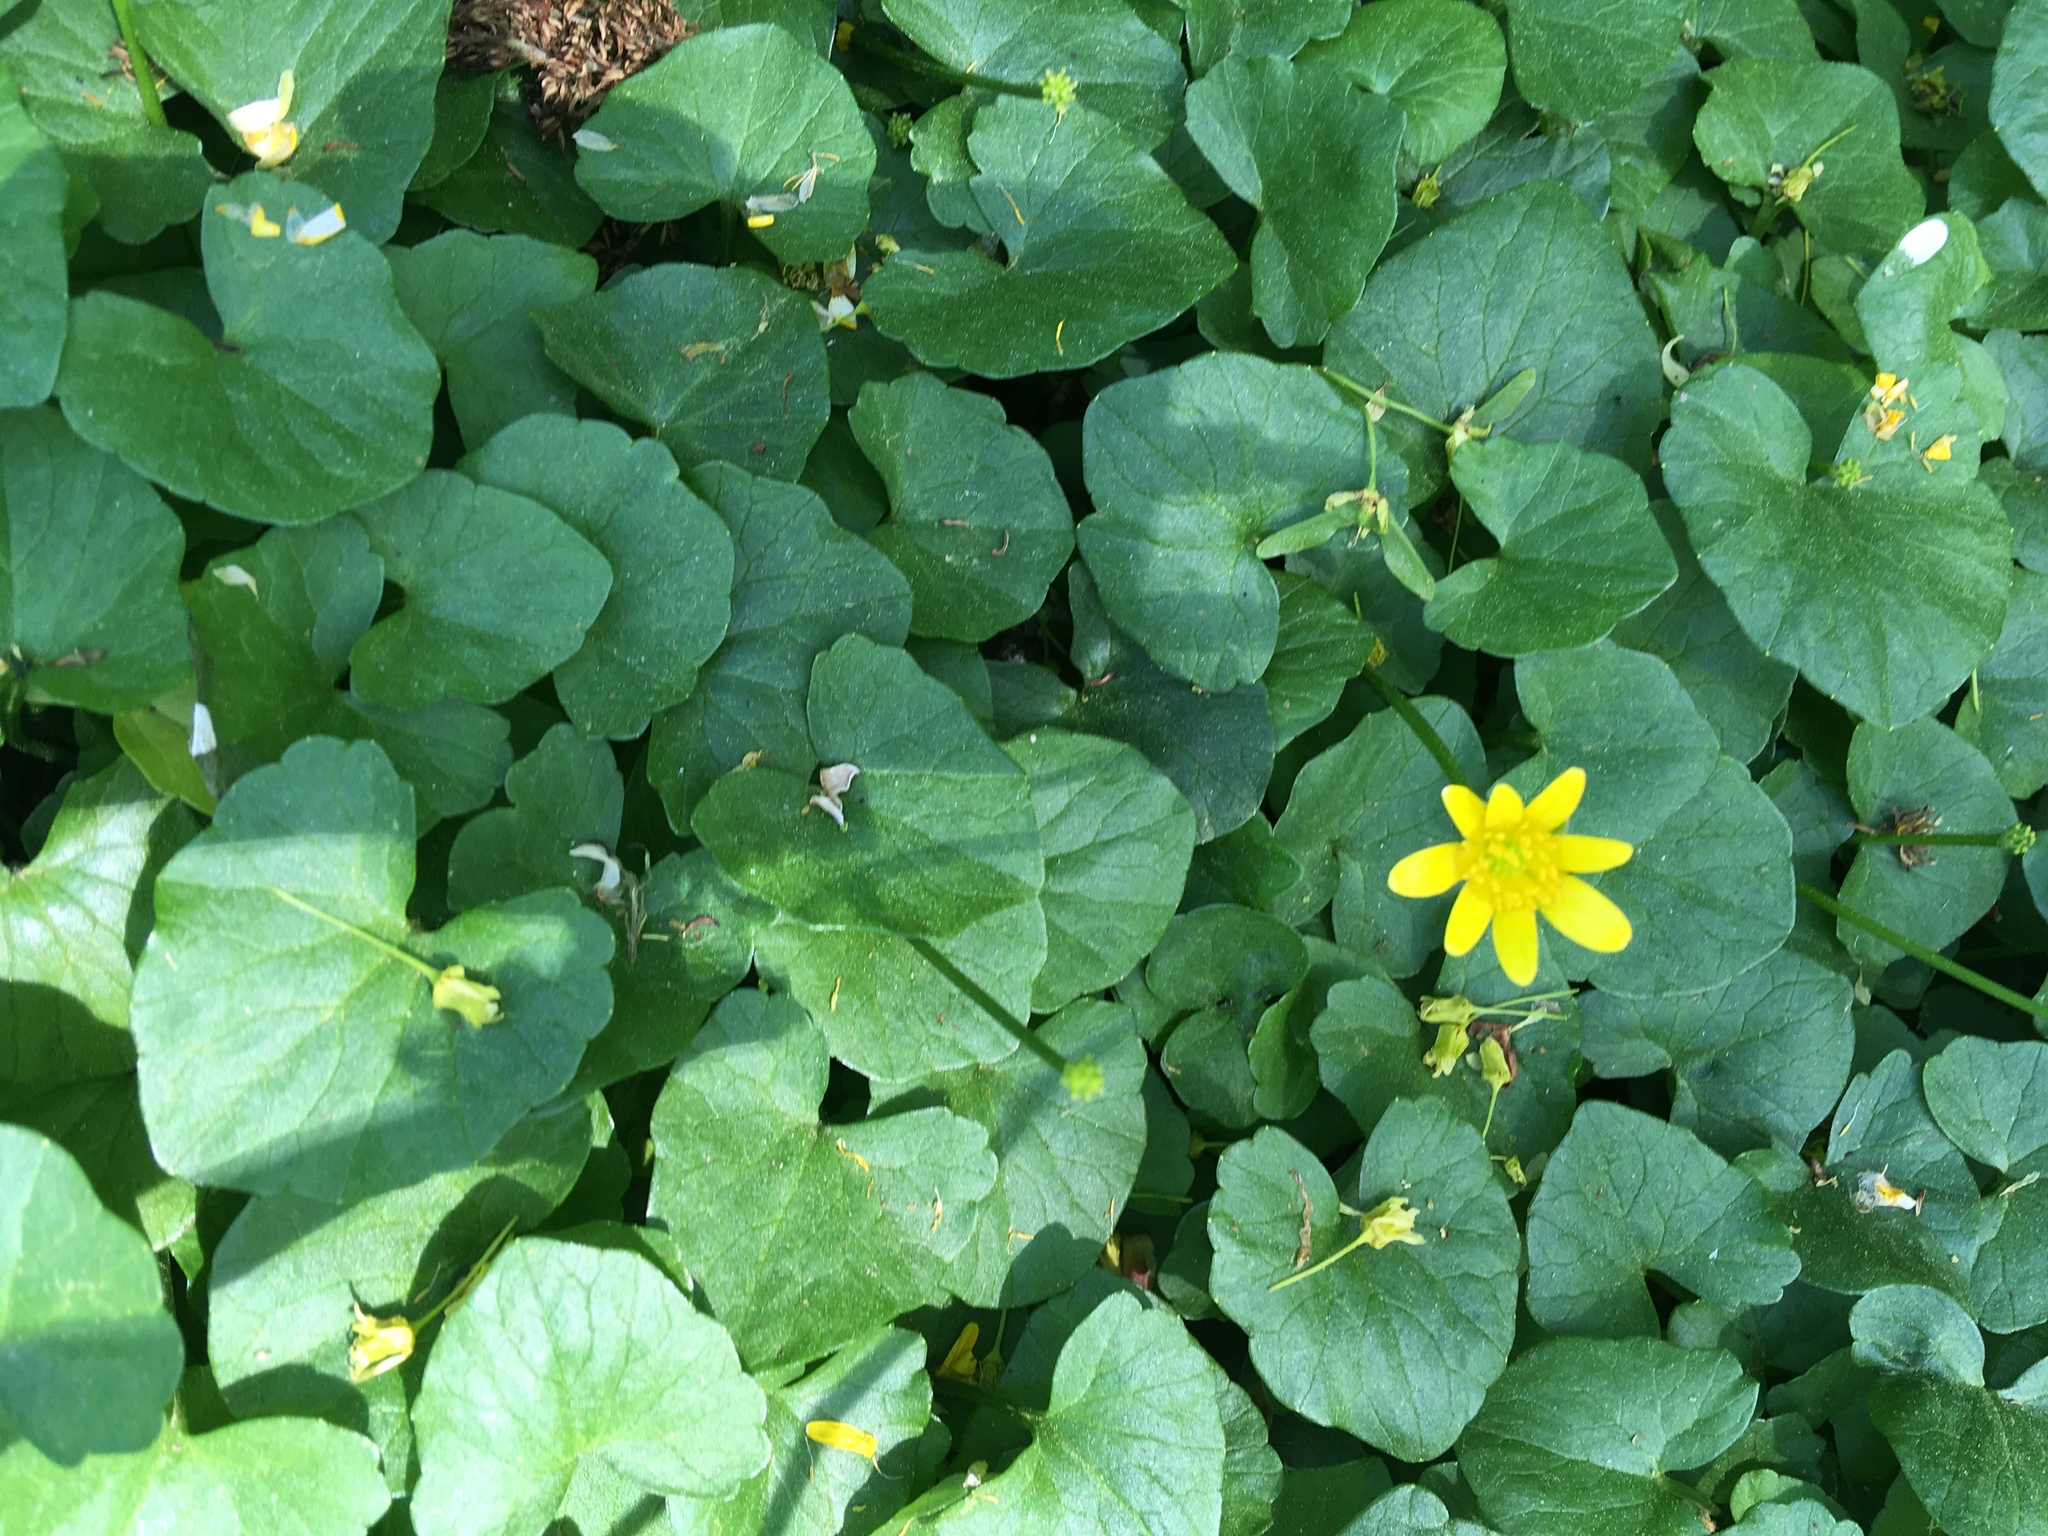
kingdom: Plantae
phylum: Tracheophyta
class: Magnoliopsida
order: Ranunculales
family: Ranunculaceae
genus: Ficaria
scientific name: Ficaria verna
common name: Lesser celandine
